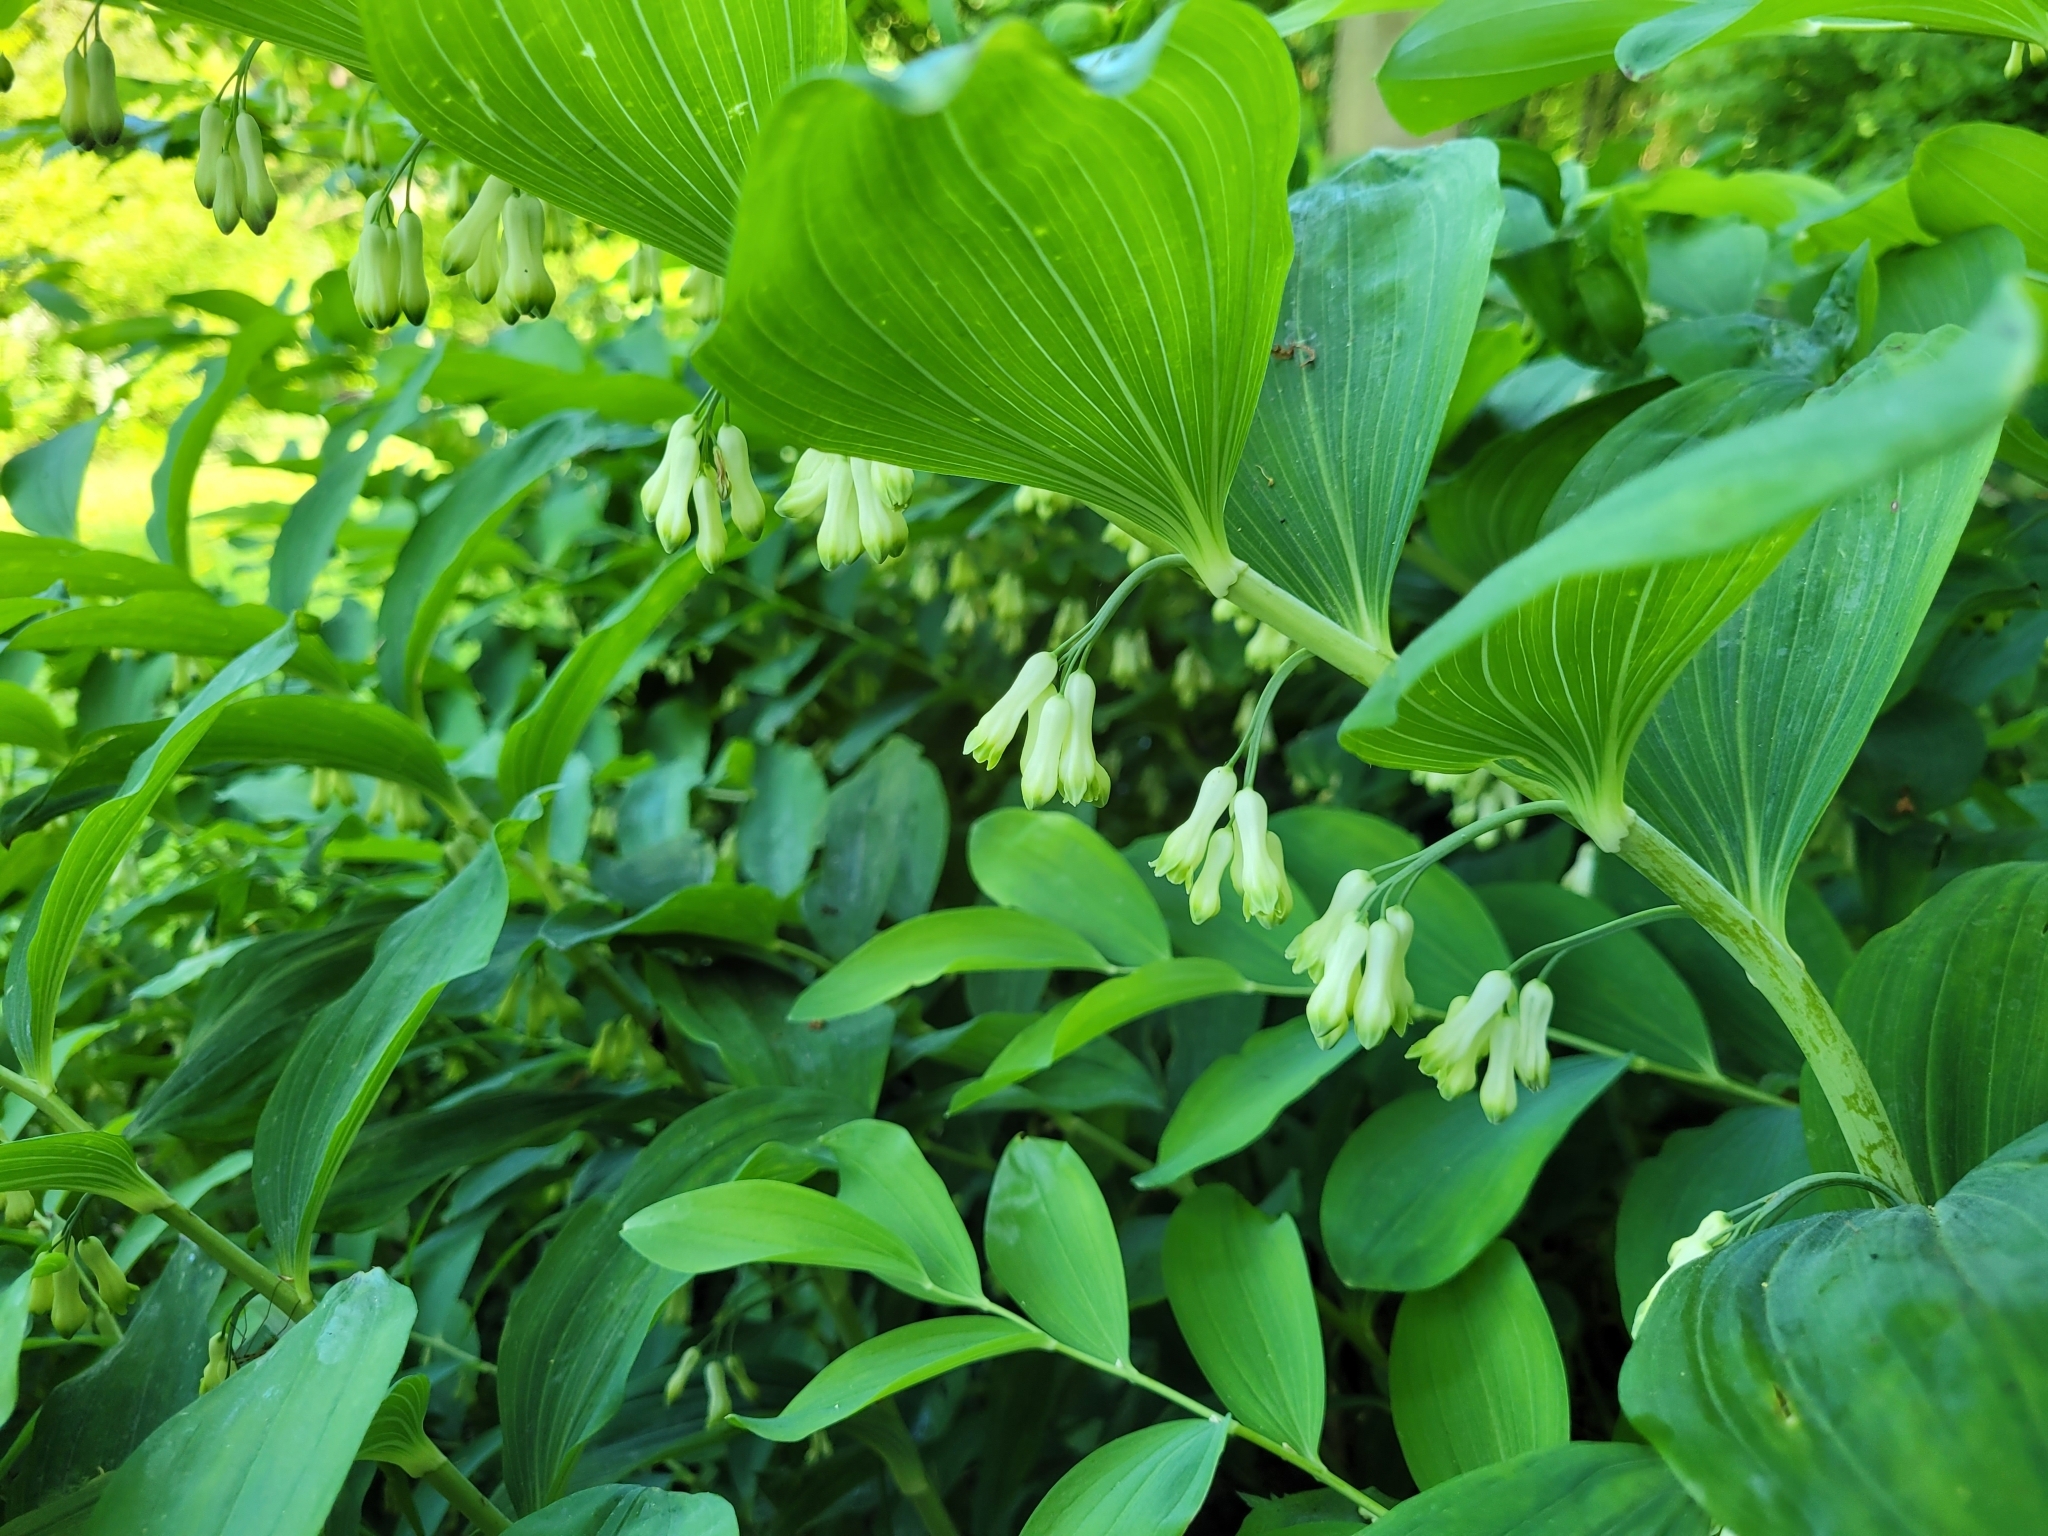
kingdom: Plantae
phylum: Tracheophyta
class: Liliopsida
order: Asparagales
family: Asparagaceae
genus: Polygonatum
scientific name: Polygonatum multiflorum
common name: Solomon's-seal
